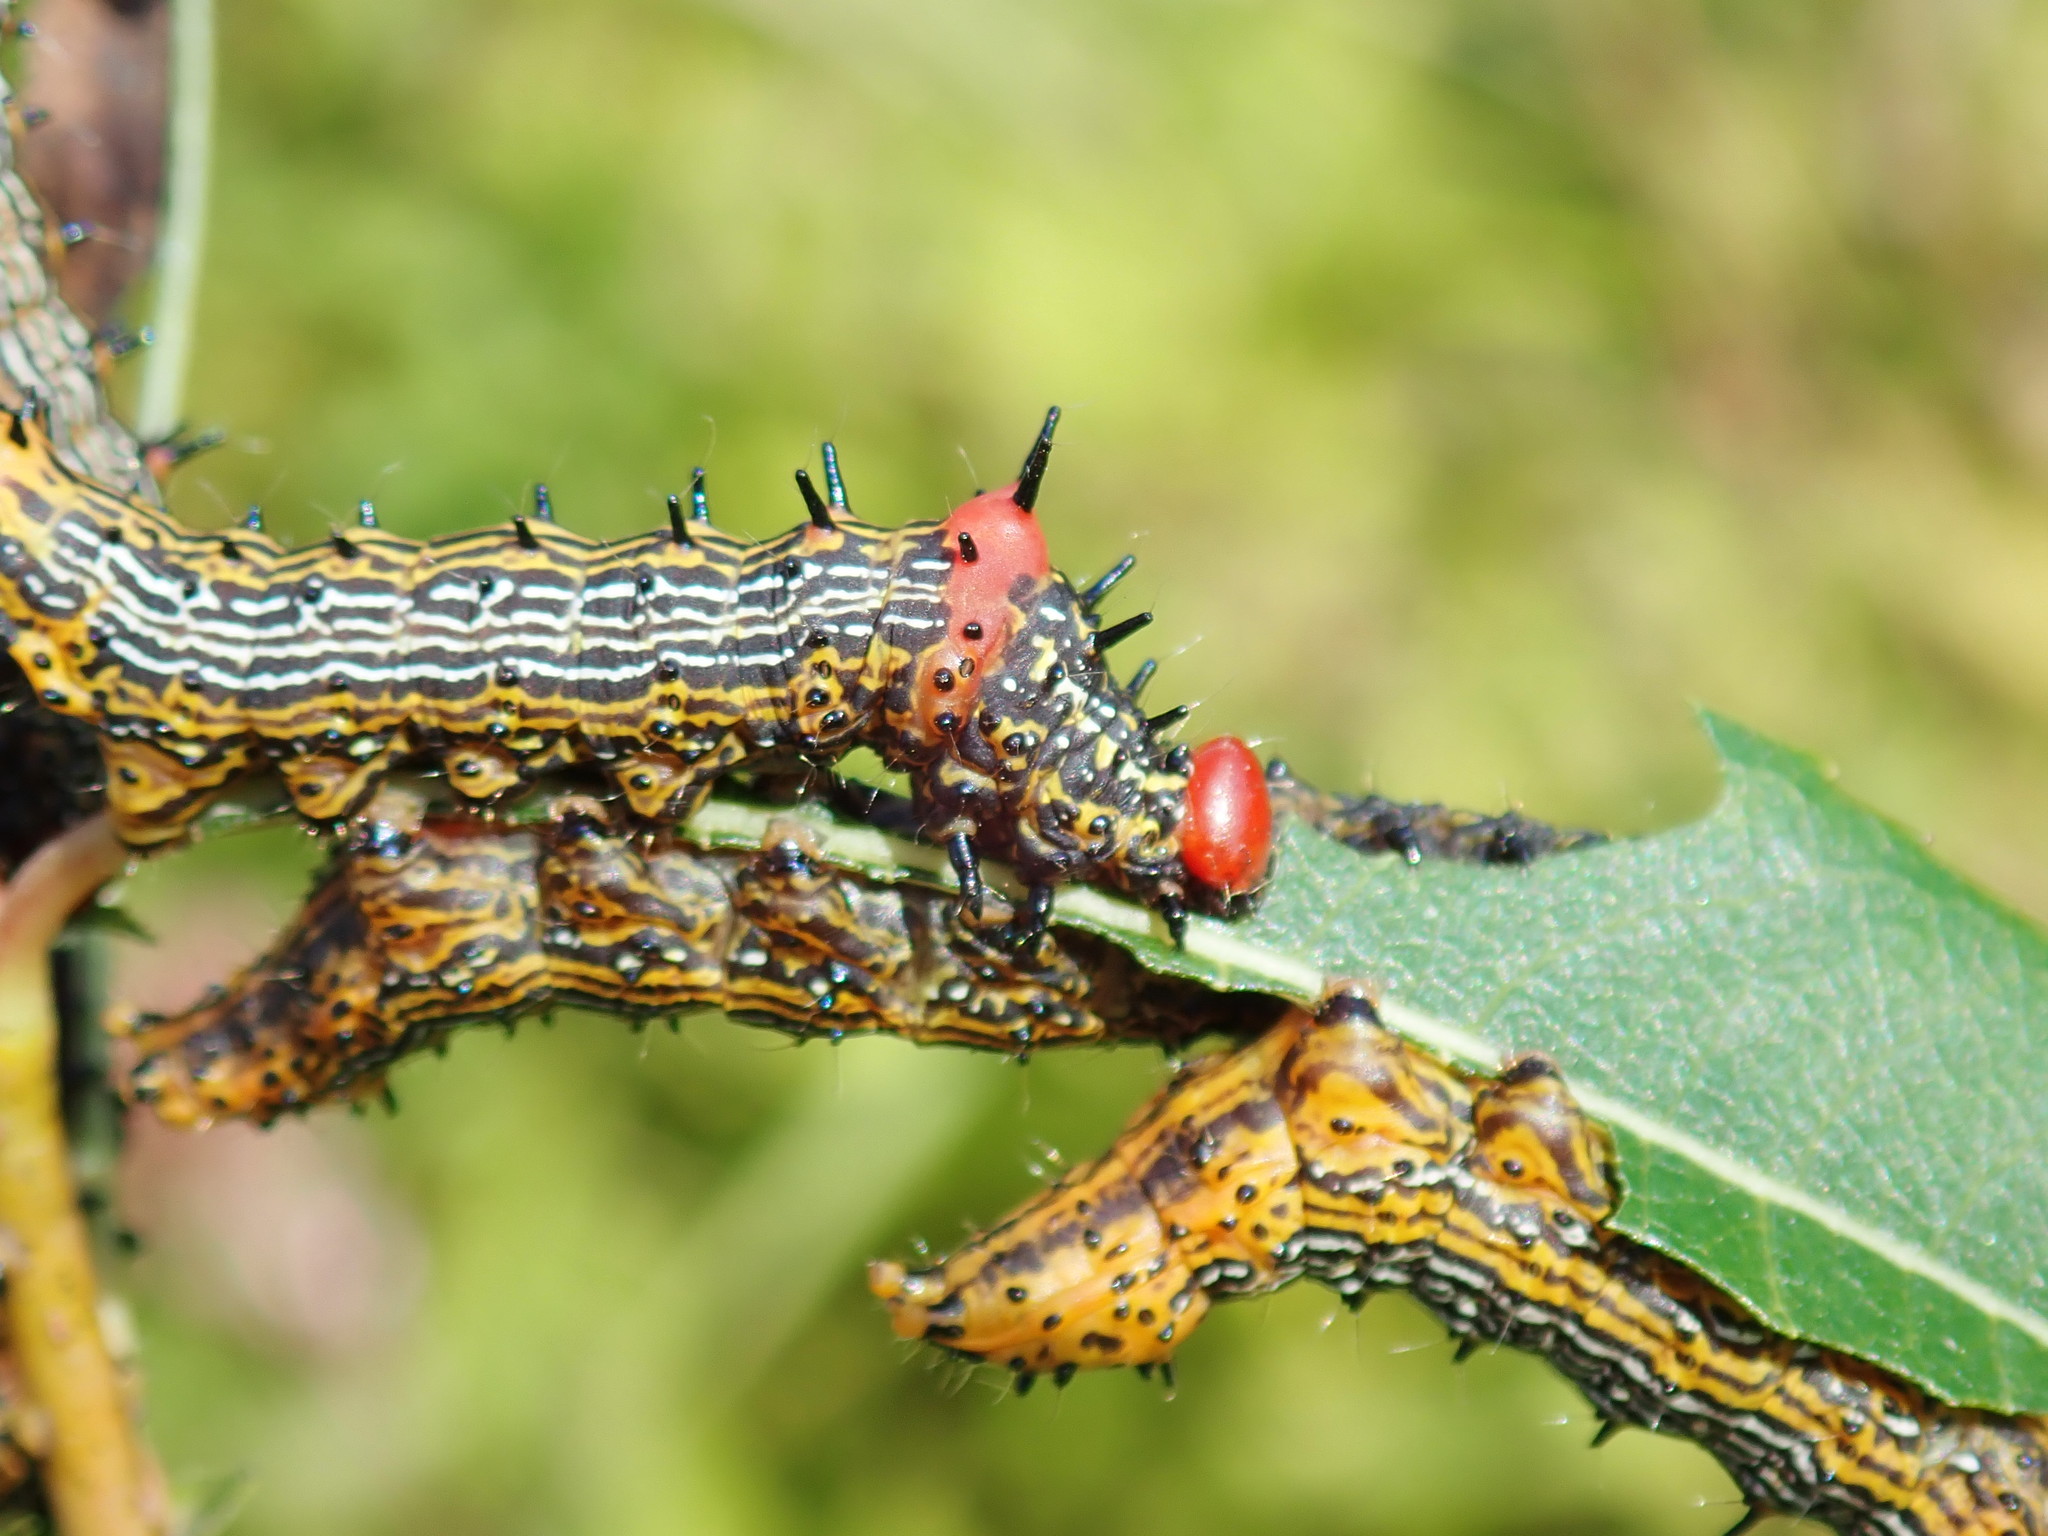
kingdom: Animalia
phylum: Arthropoda
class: Insecta
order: Lepidoptera
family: Notodontidae
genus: Schizura
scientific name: Schizura
